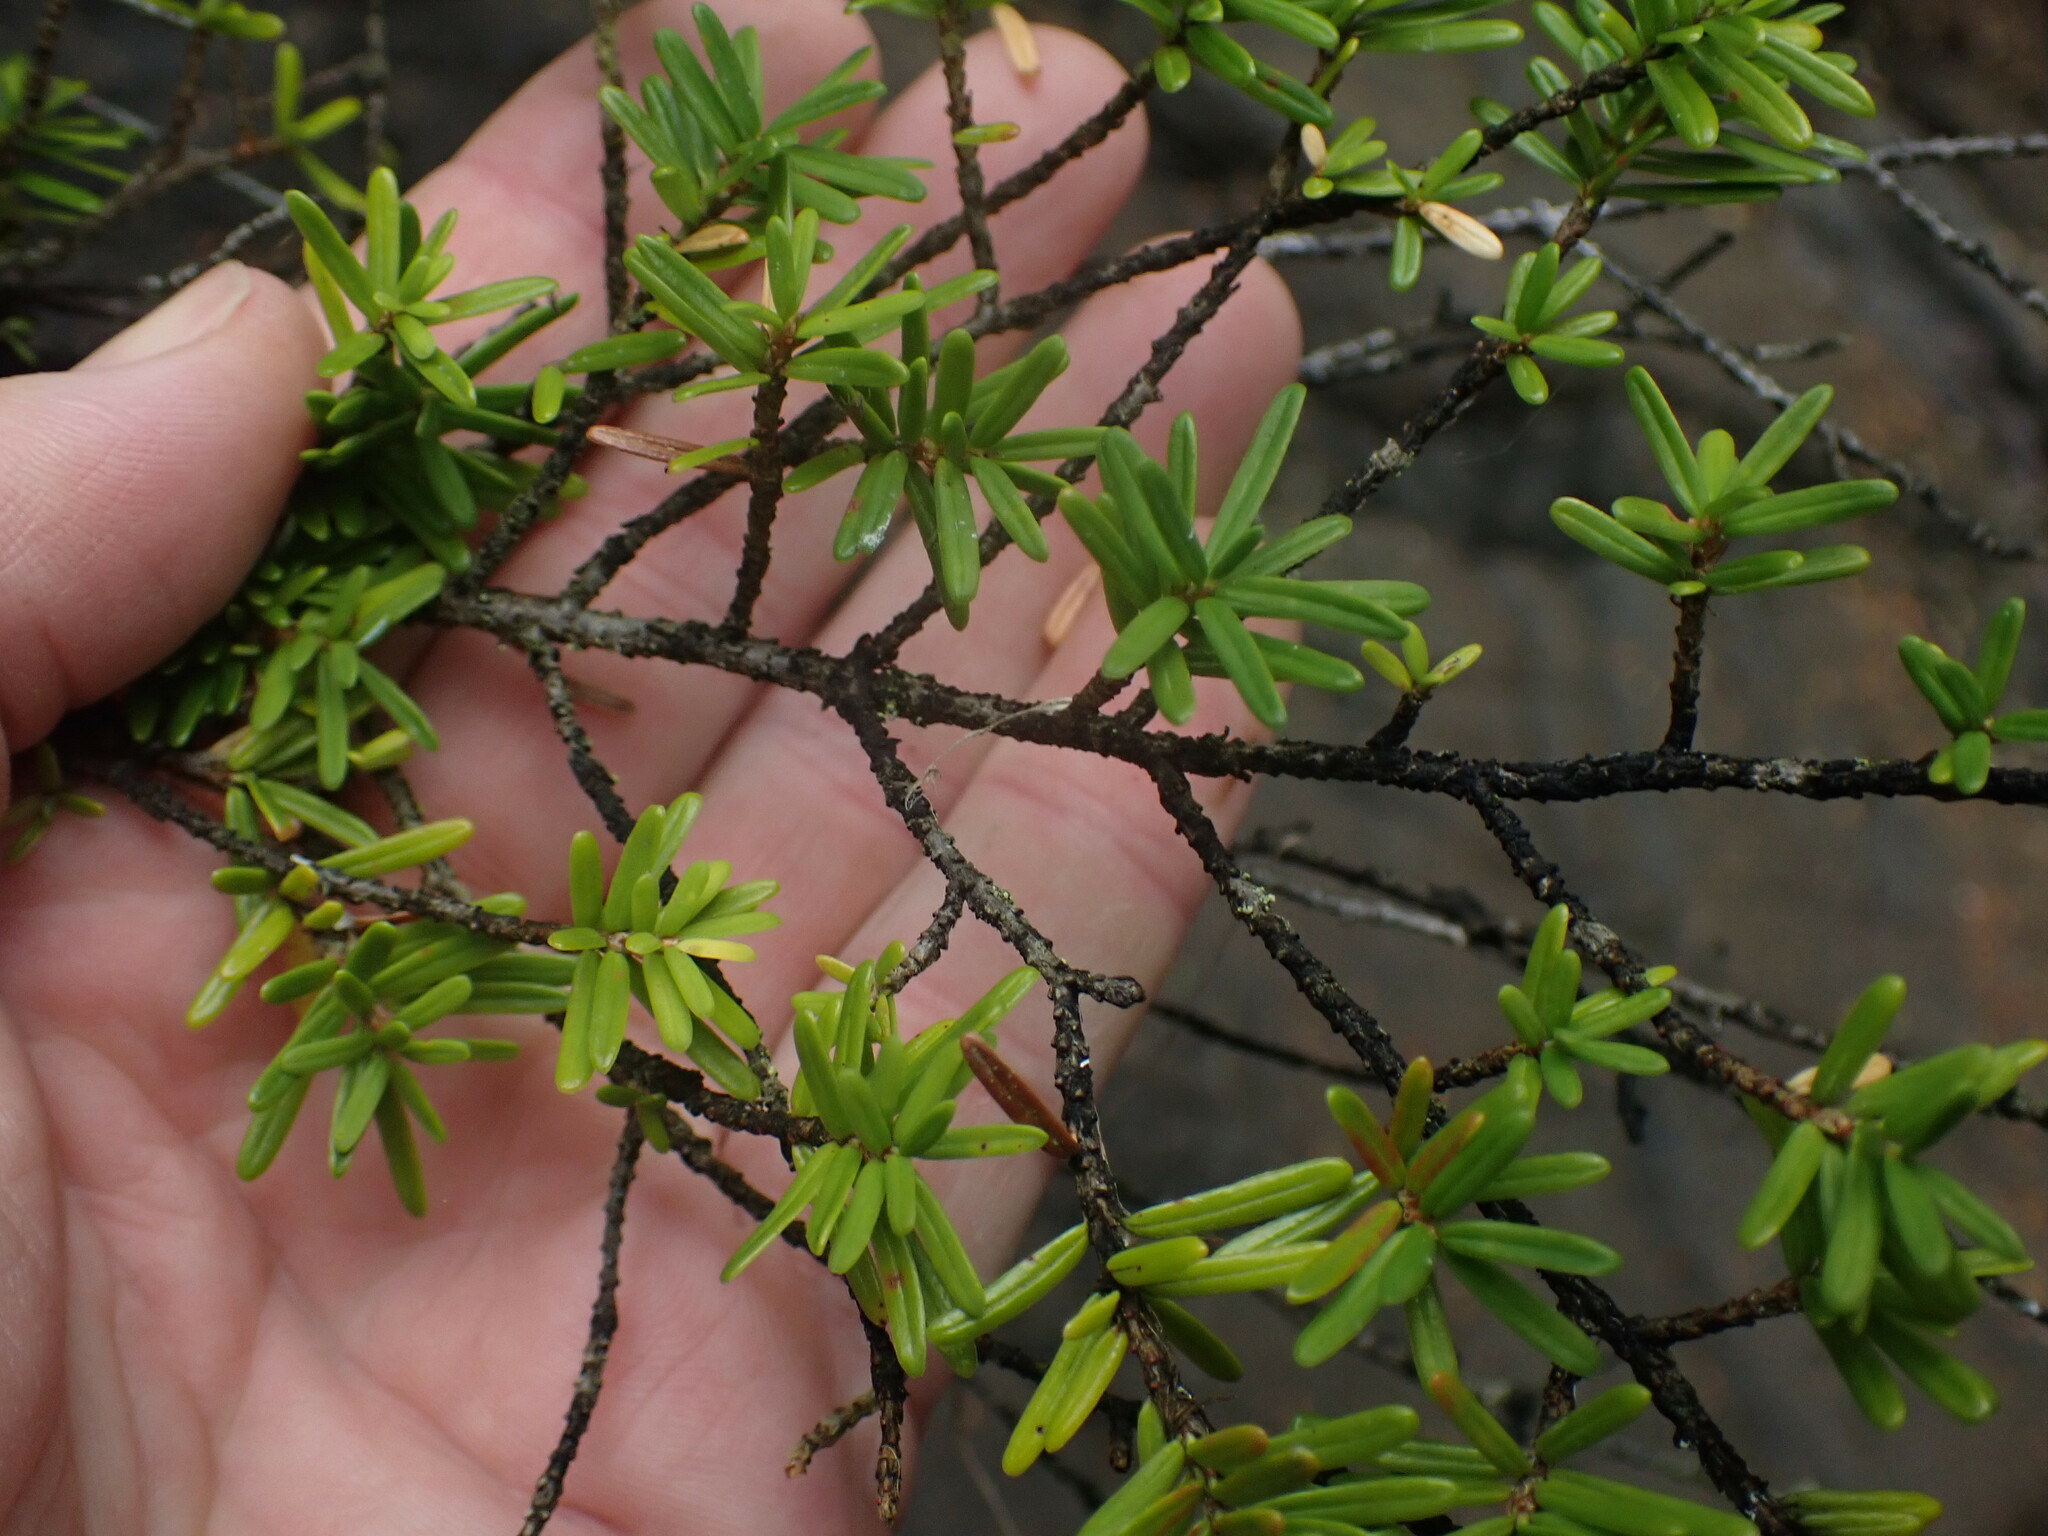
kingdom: Plantae
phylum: Tracheophyta
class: Pinopsida
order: Pinales
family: Pinaceae
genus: Tsuga
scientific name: Tsuga heterophylla
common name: Western hemlock
